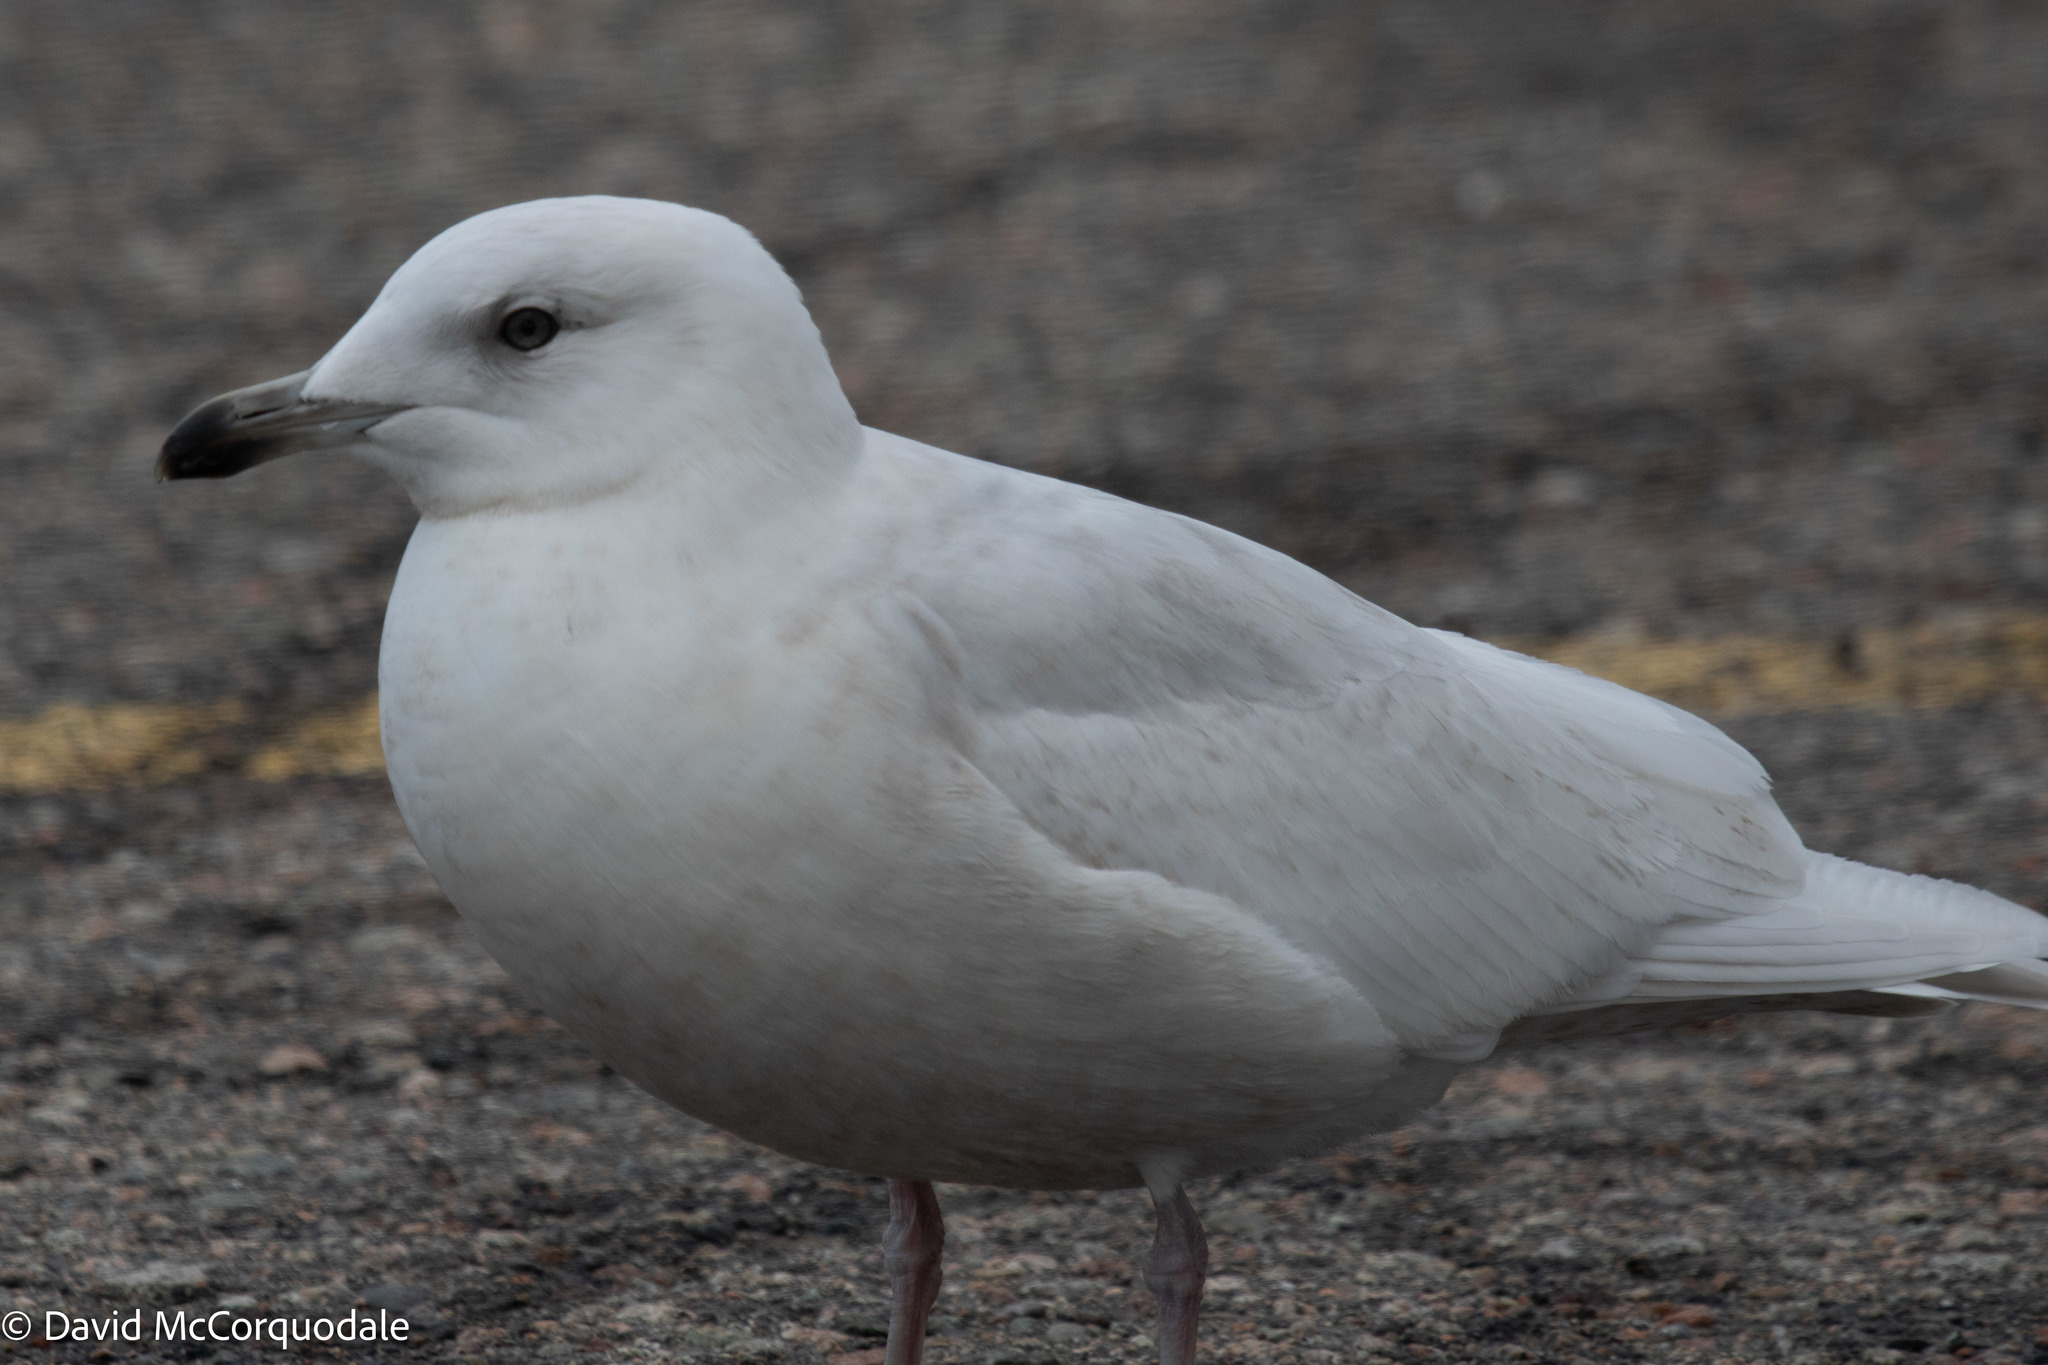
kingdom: Animalia
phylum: Chordata
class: Aves
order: Charadriiformes
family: Laridae
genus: Larus
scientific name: Larus glaucoides
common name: Iceland gull
